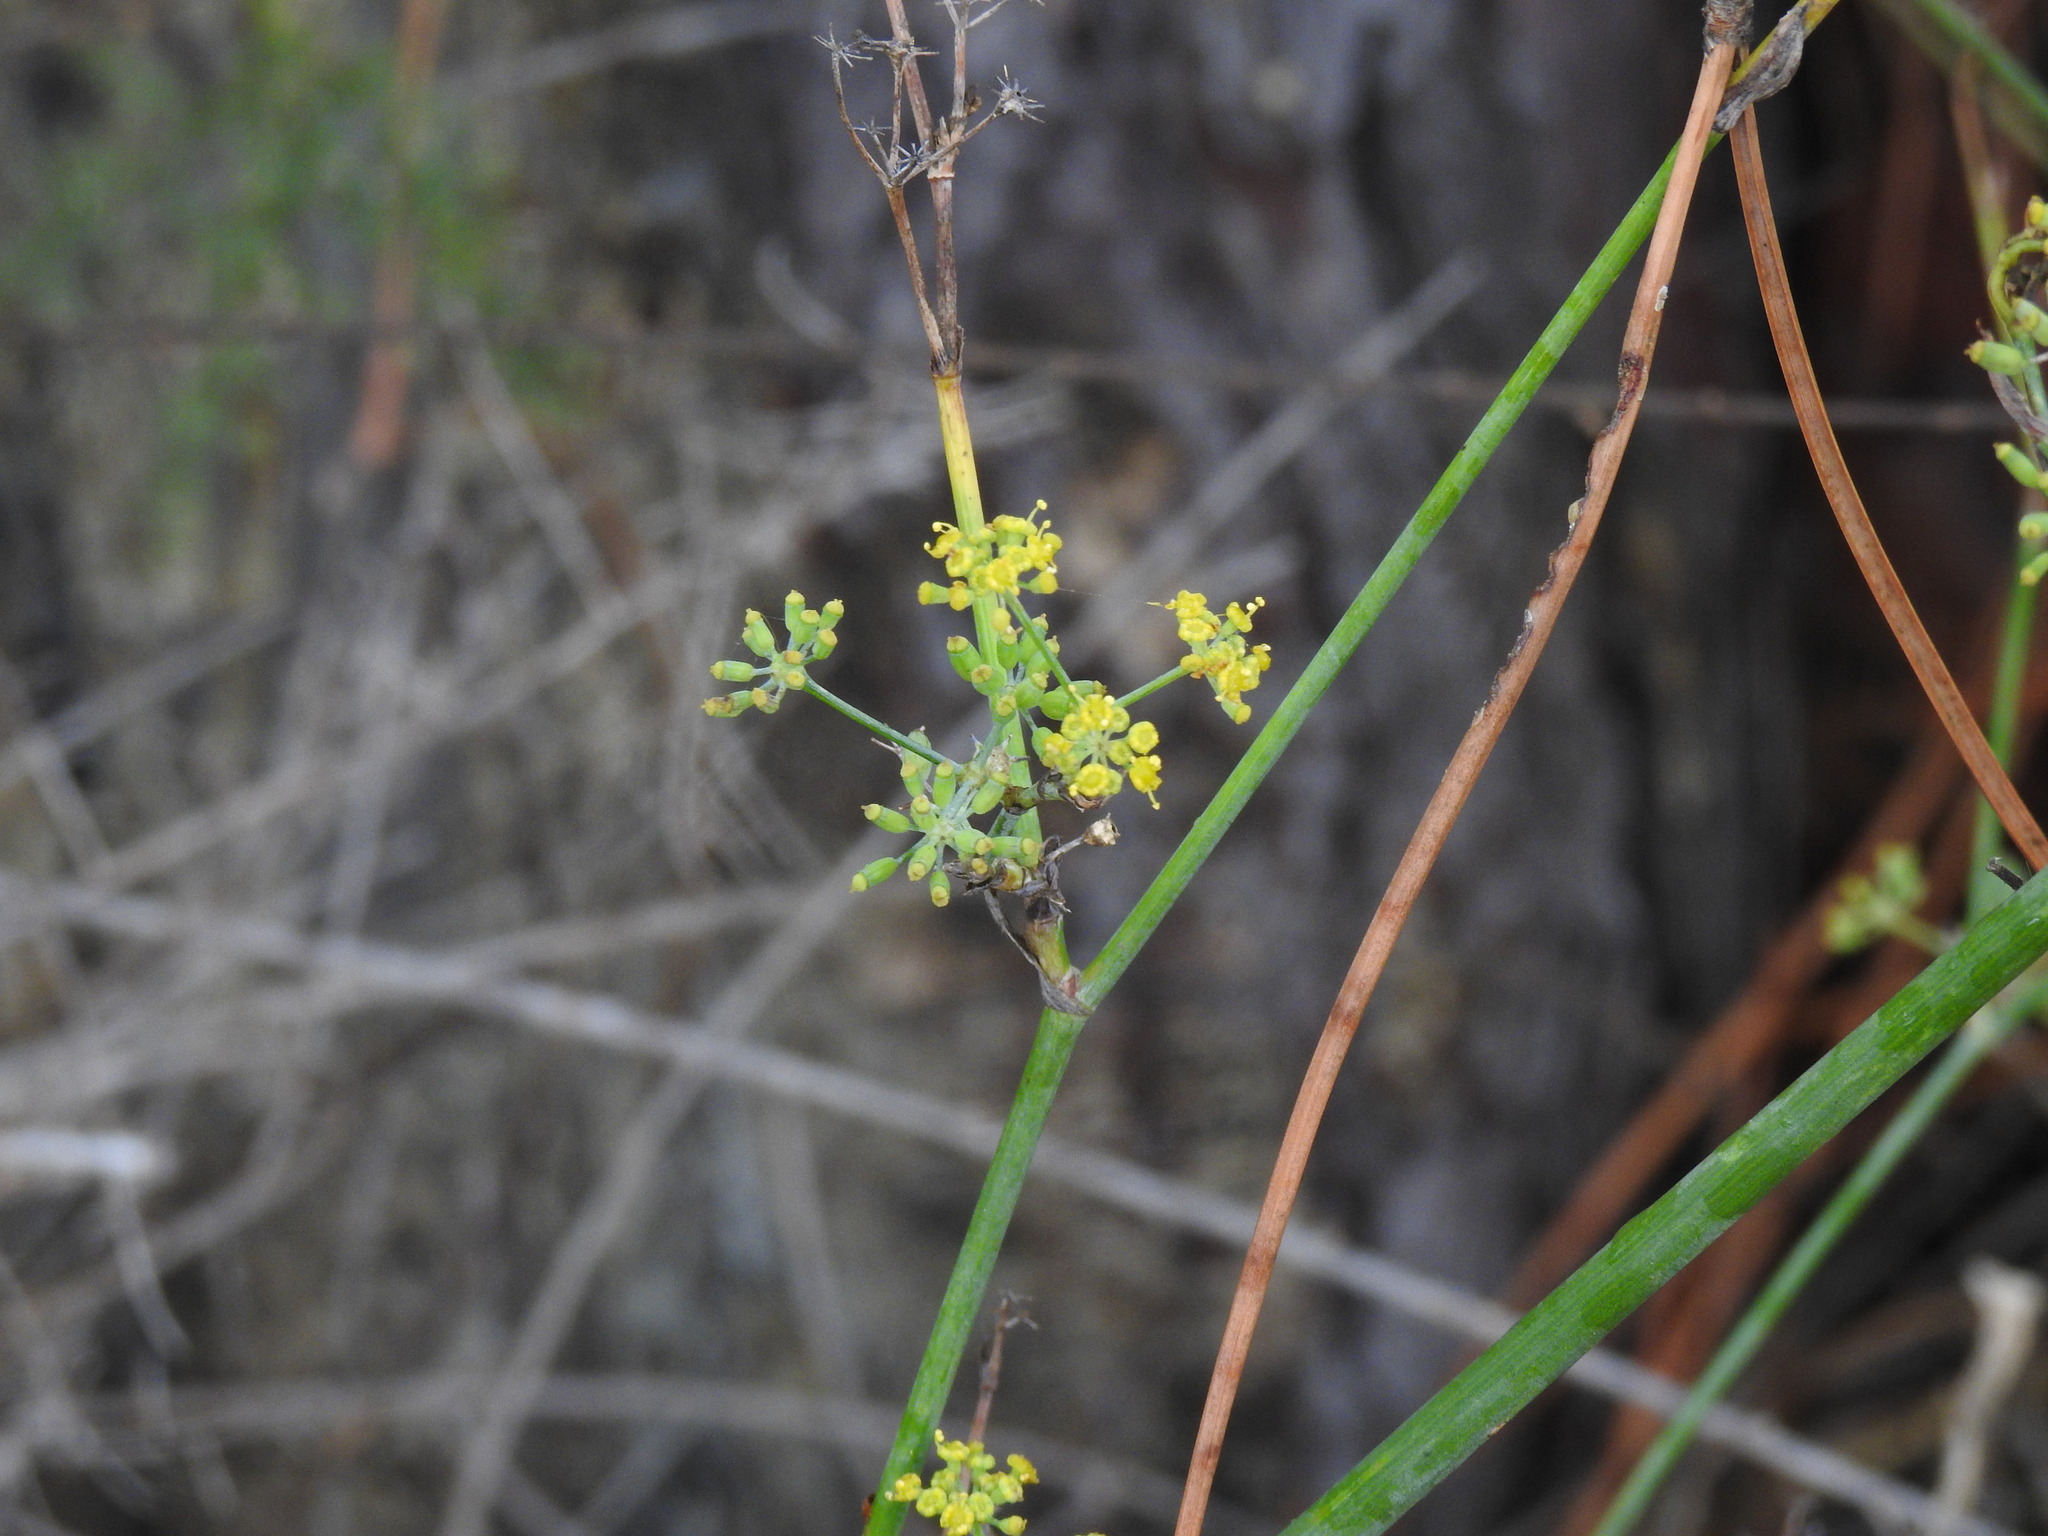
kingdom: Plantae
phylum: Tracheophyta
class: Magnoliopsida
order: Apiales
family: Apiaceae
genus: Foeniculum
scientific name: Foeniculum vulgare
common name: Fennel
